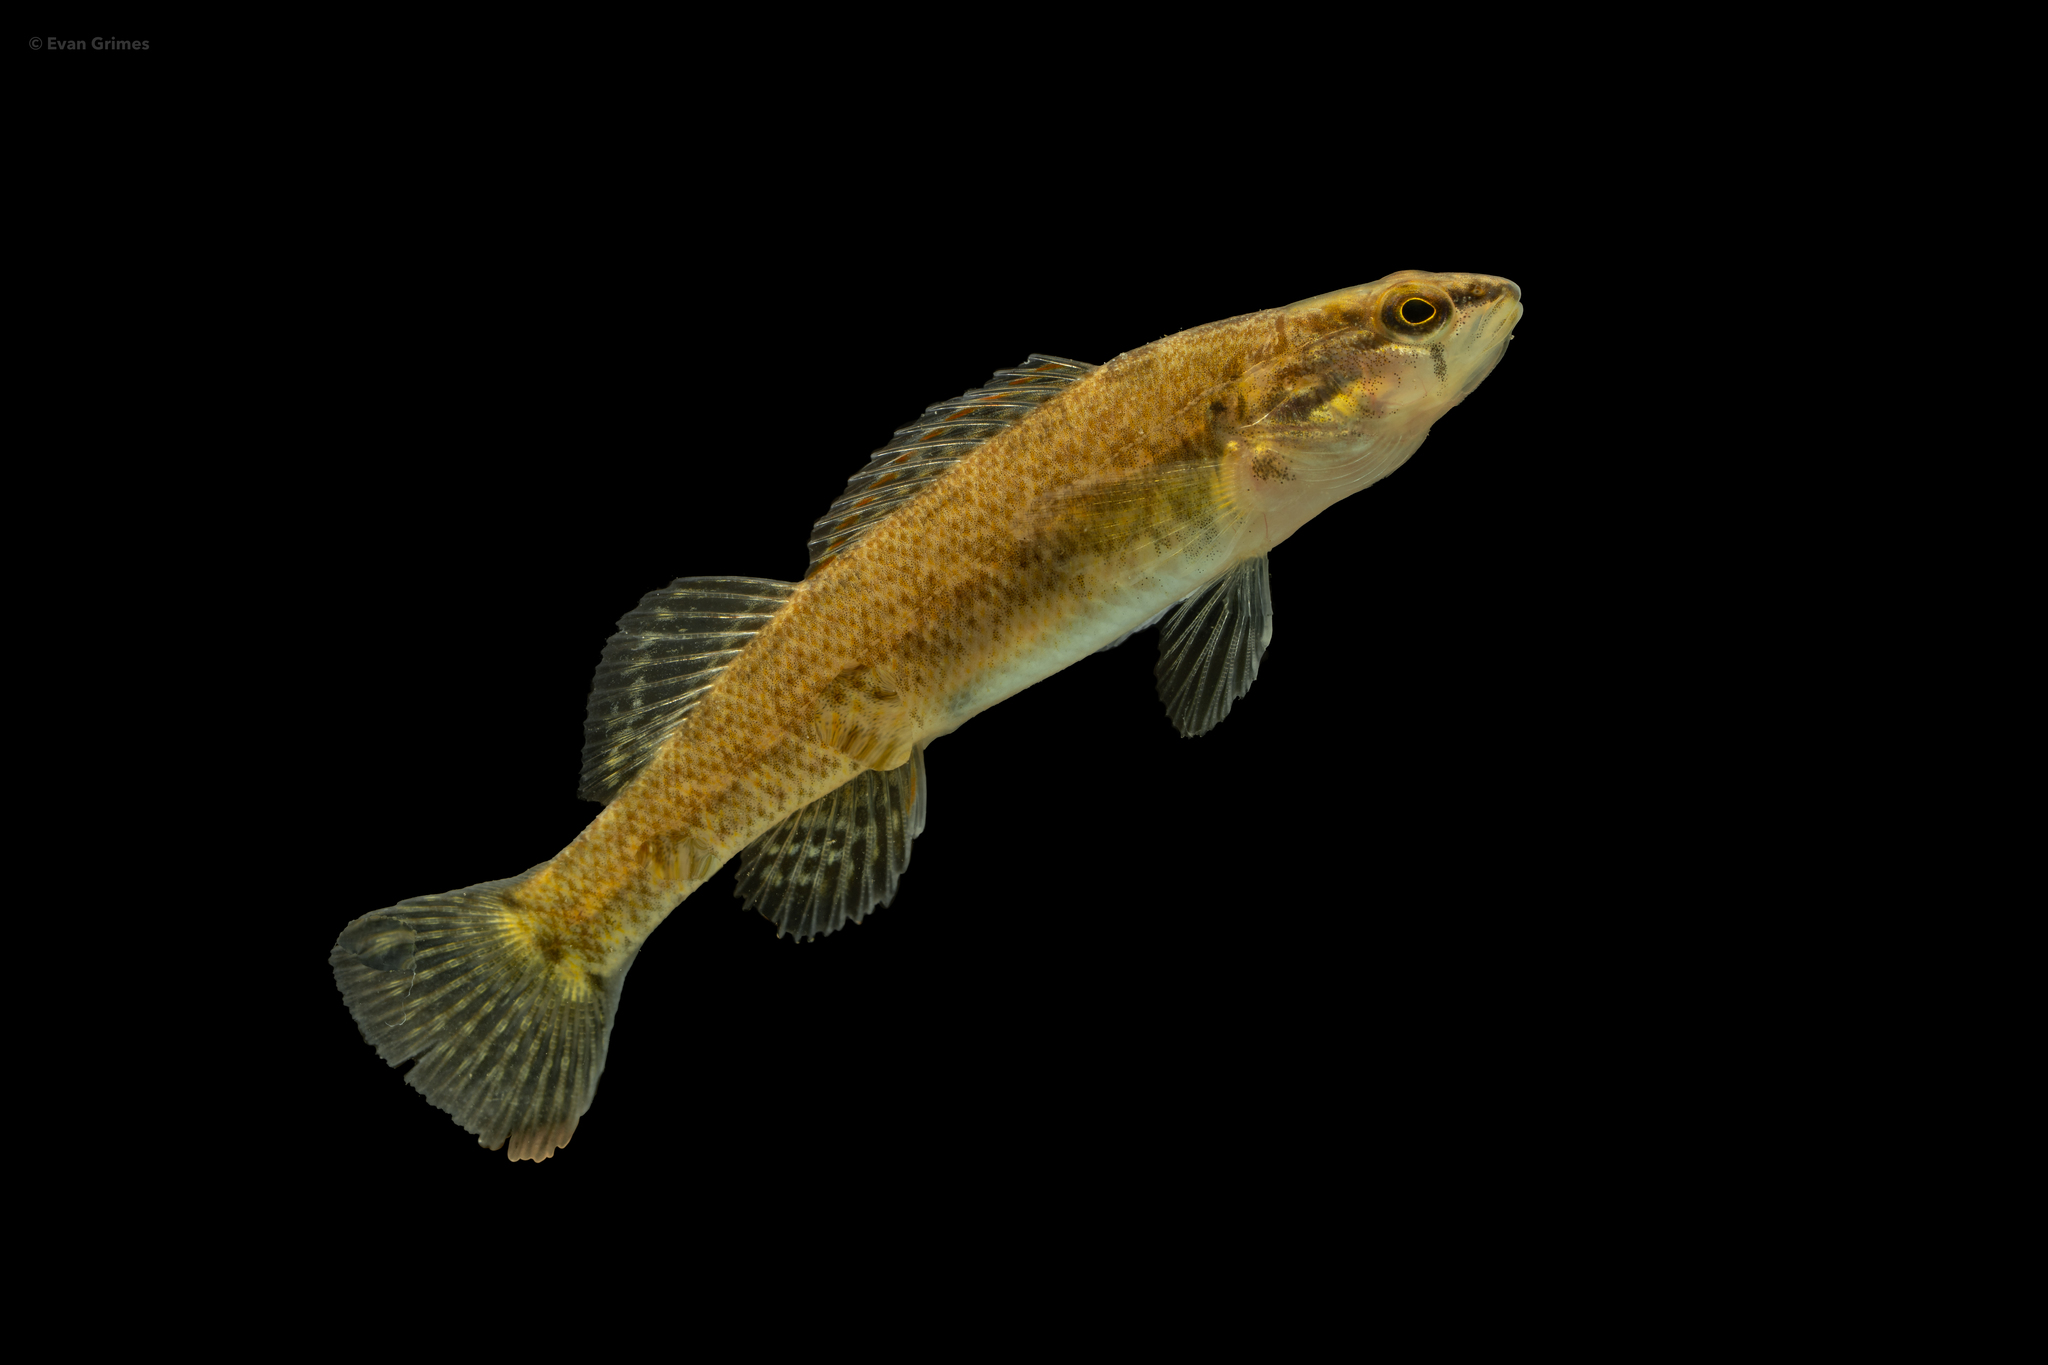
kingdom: Animalia
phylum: Chordata
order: Perciformes
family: Percidae
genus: Etheostoma
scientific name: Etheostoma artesiae
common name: Redspot darter
